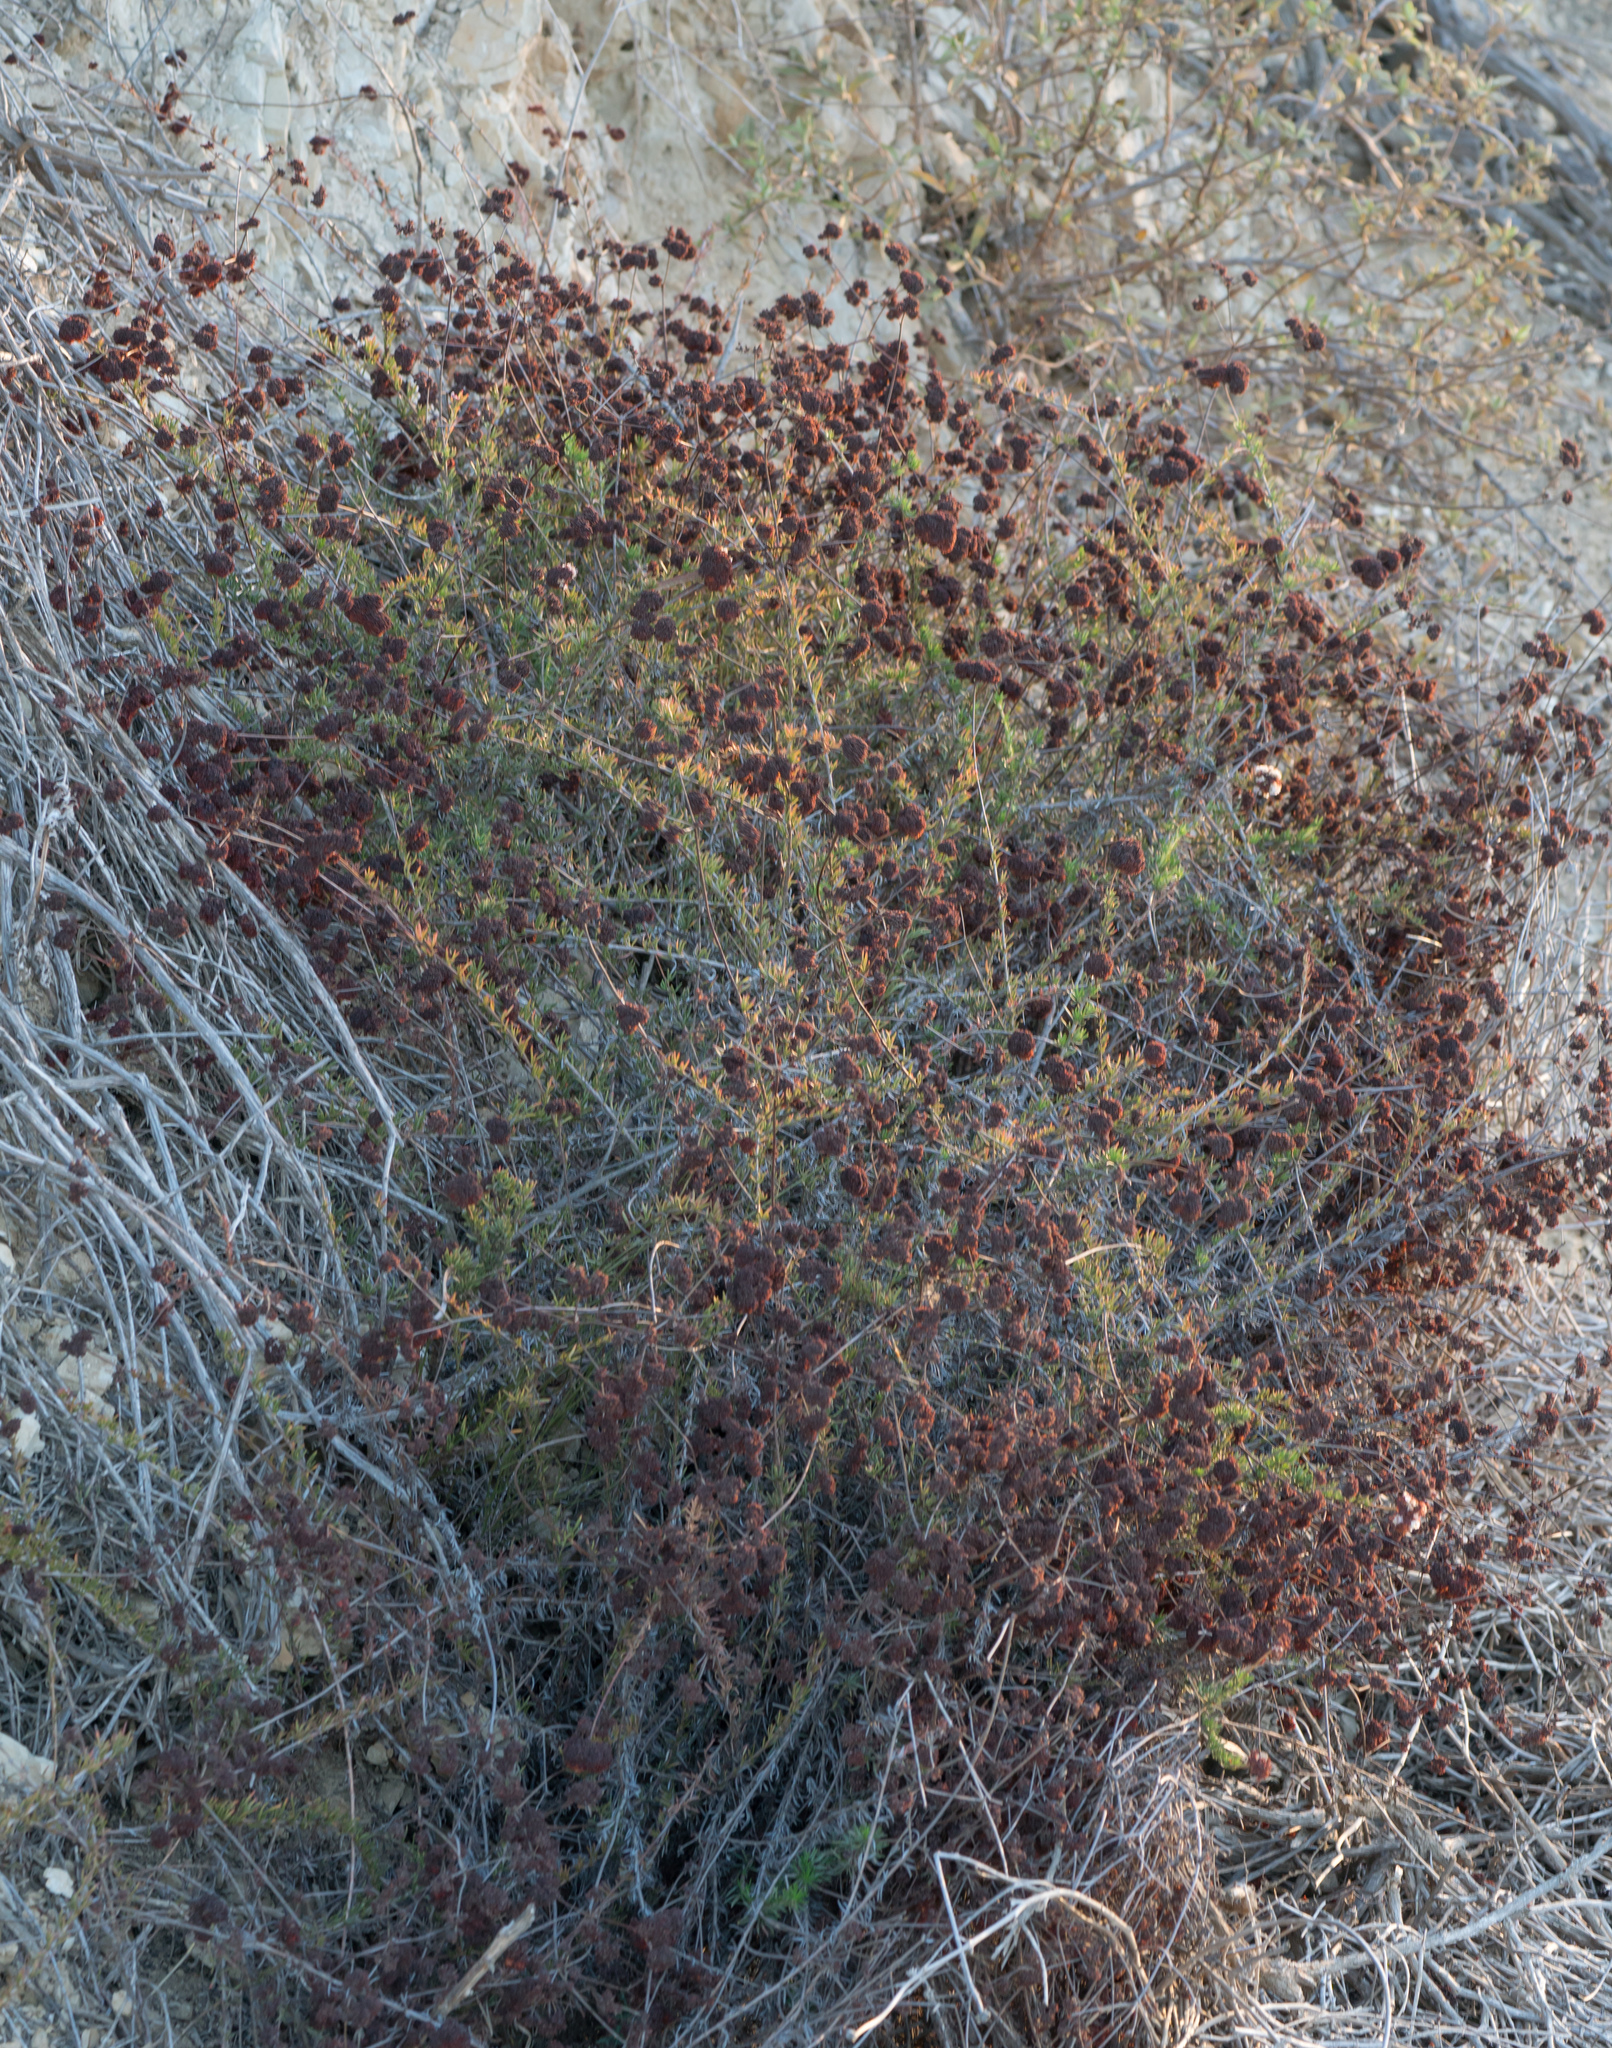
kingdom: Plantae
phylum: Tracheophyta
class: Magnoliopsida
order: Caryophyllales
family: Polygonaceae
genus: Eriogonum
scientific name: Eriogonum fasciculatum
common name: California wild buckwheat
